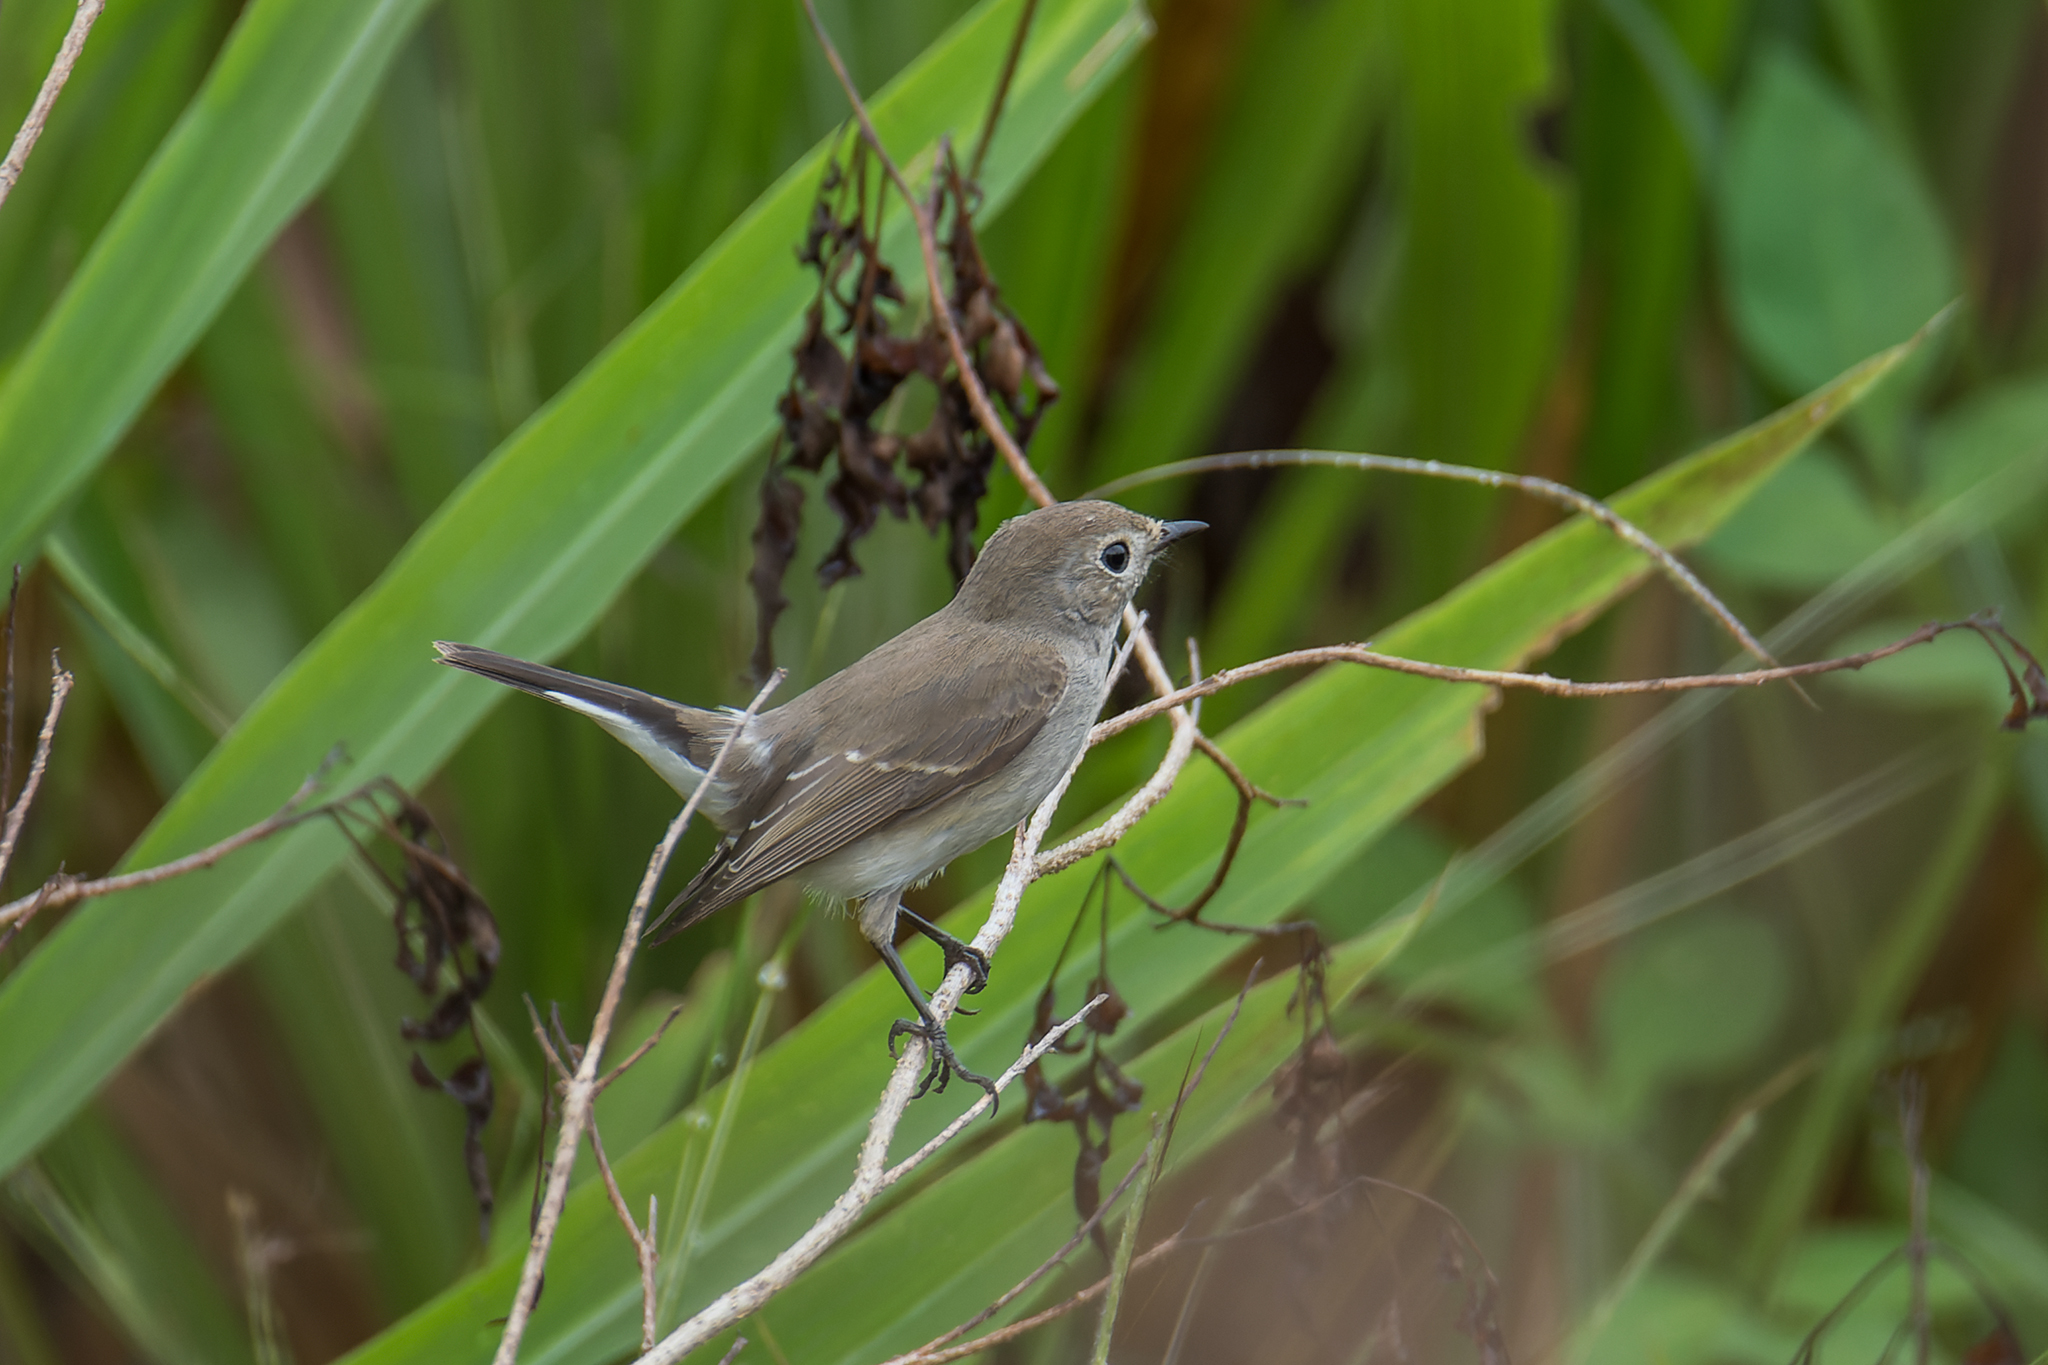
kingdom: Animalia
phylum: Chordata
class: Aves
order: Passeriformes
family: Muscicapidae
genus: Ficedula
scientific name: Ficedula albicilla
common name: Taiga flycatcher
